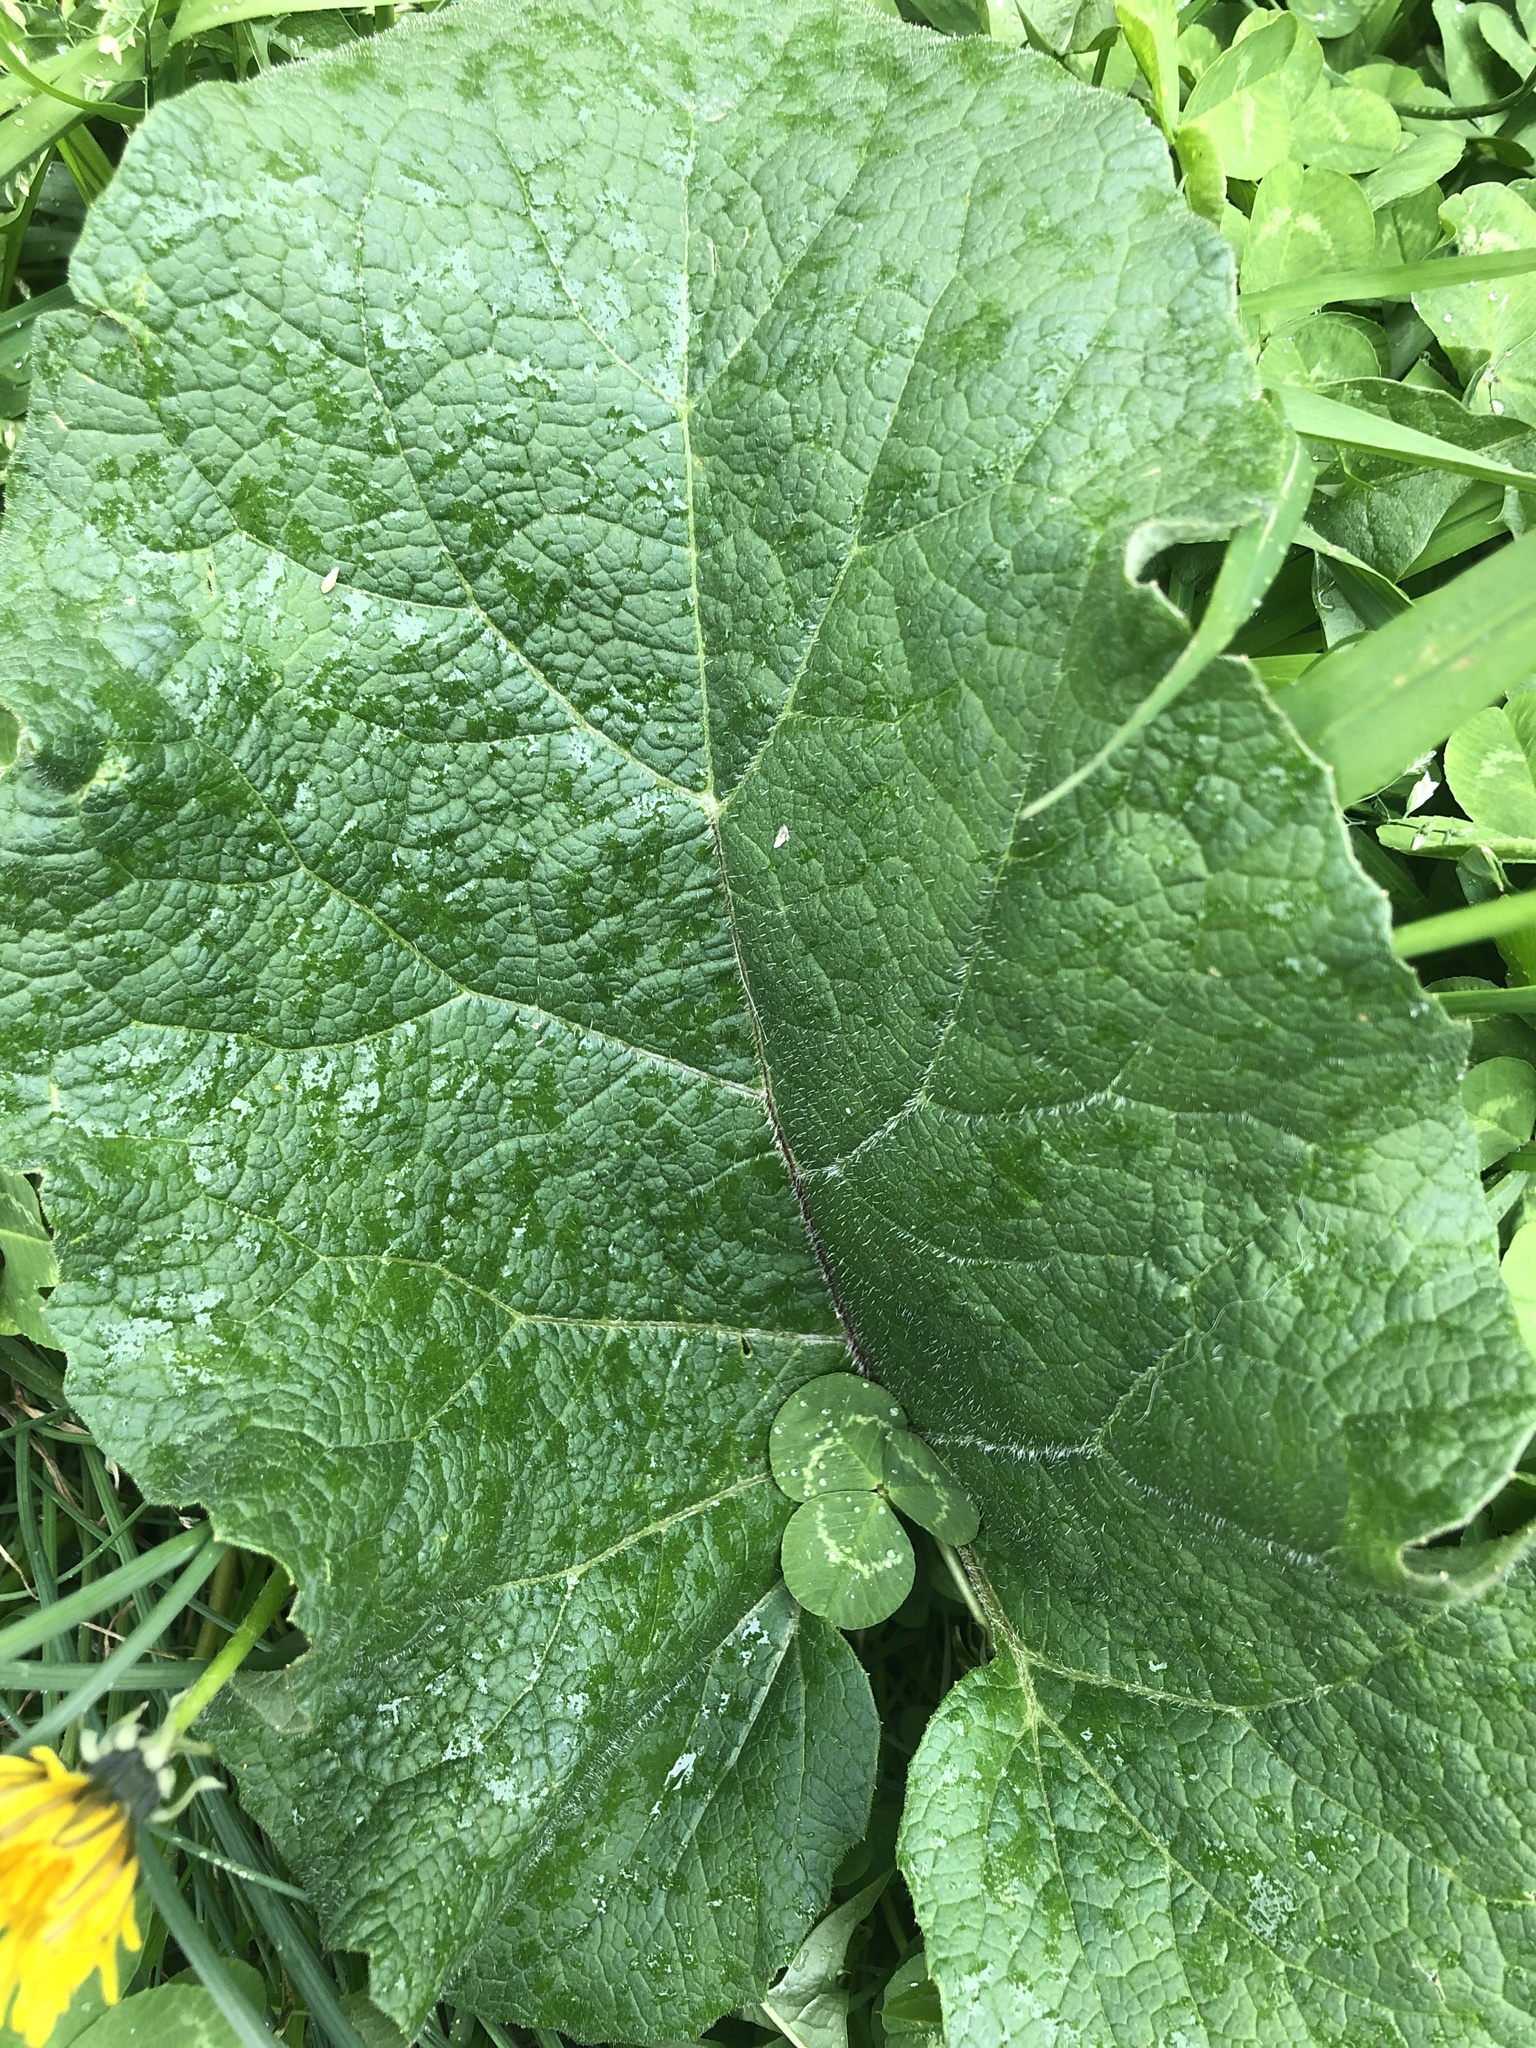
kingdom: Plantae
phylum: Tracheophyta
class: Magnoliopsida
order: Asterales
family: Asteraceae
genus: Arctium
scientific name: Arctium
